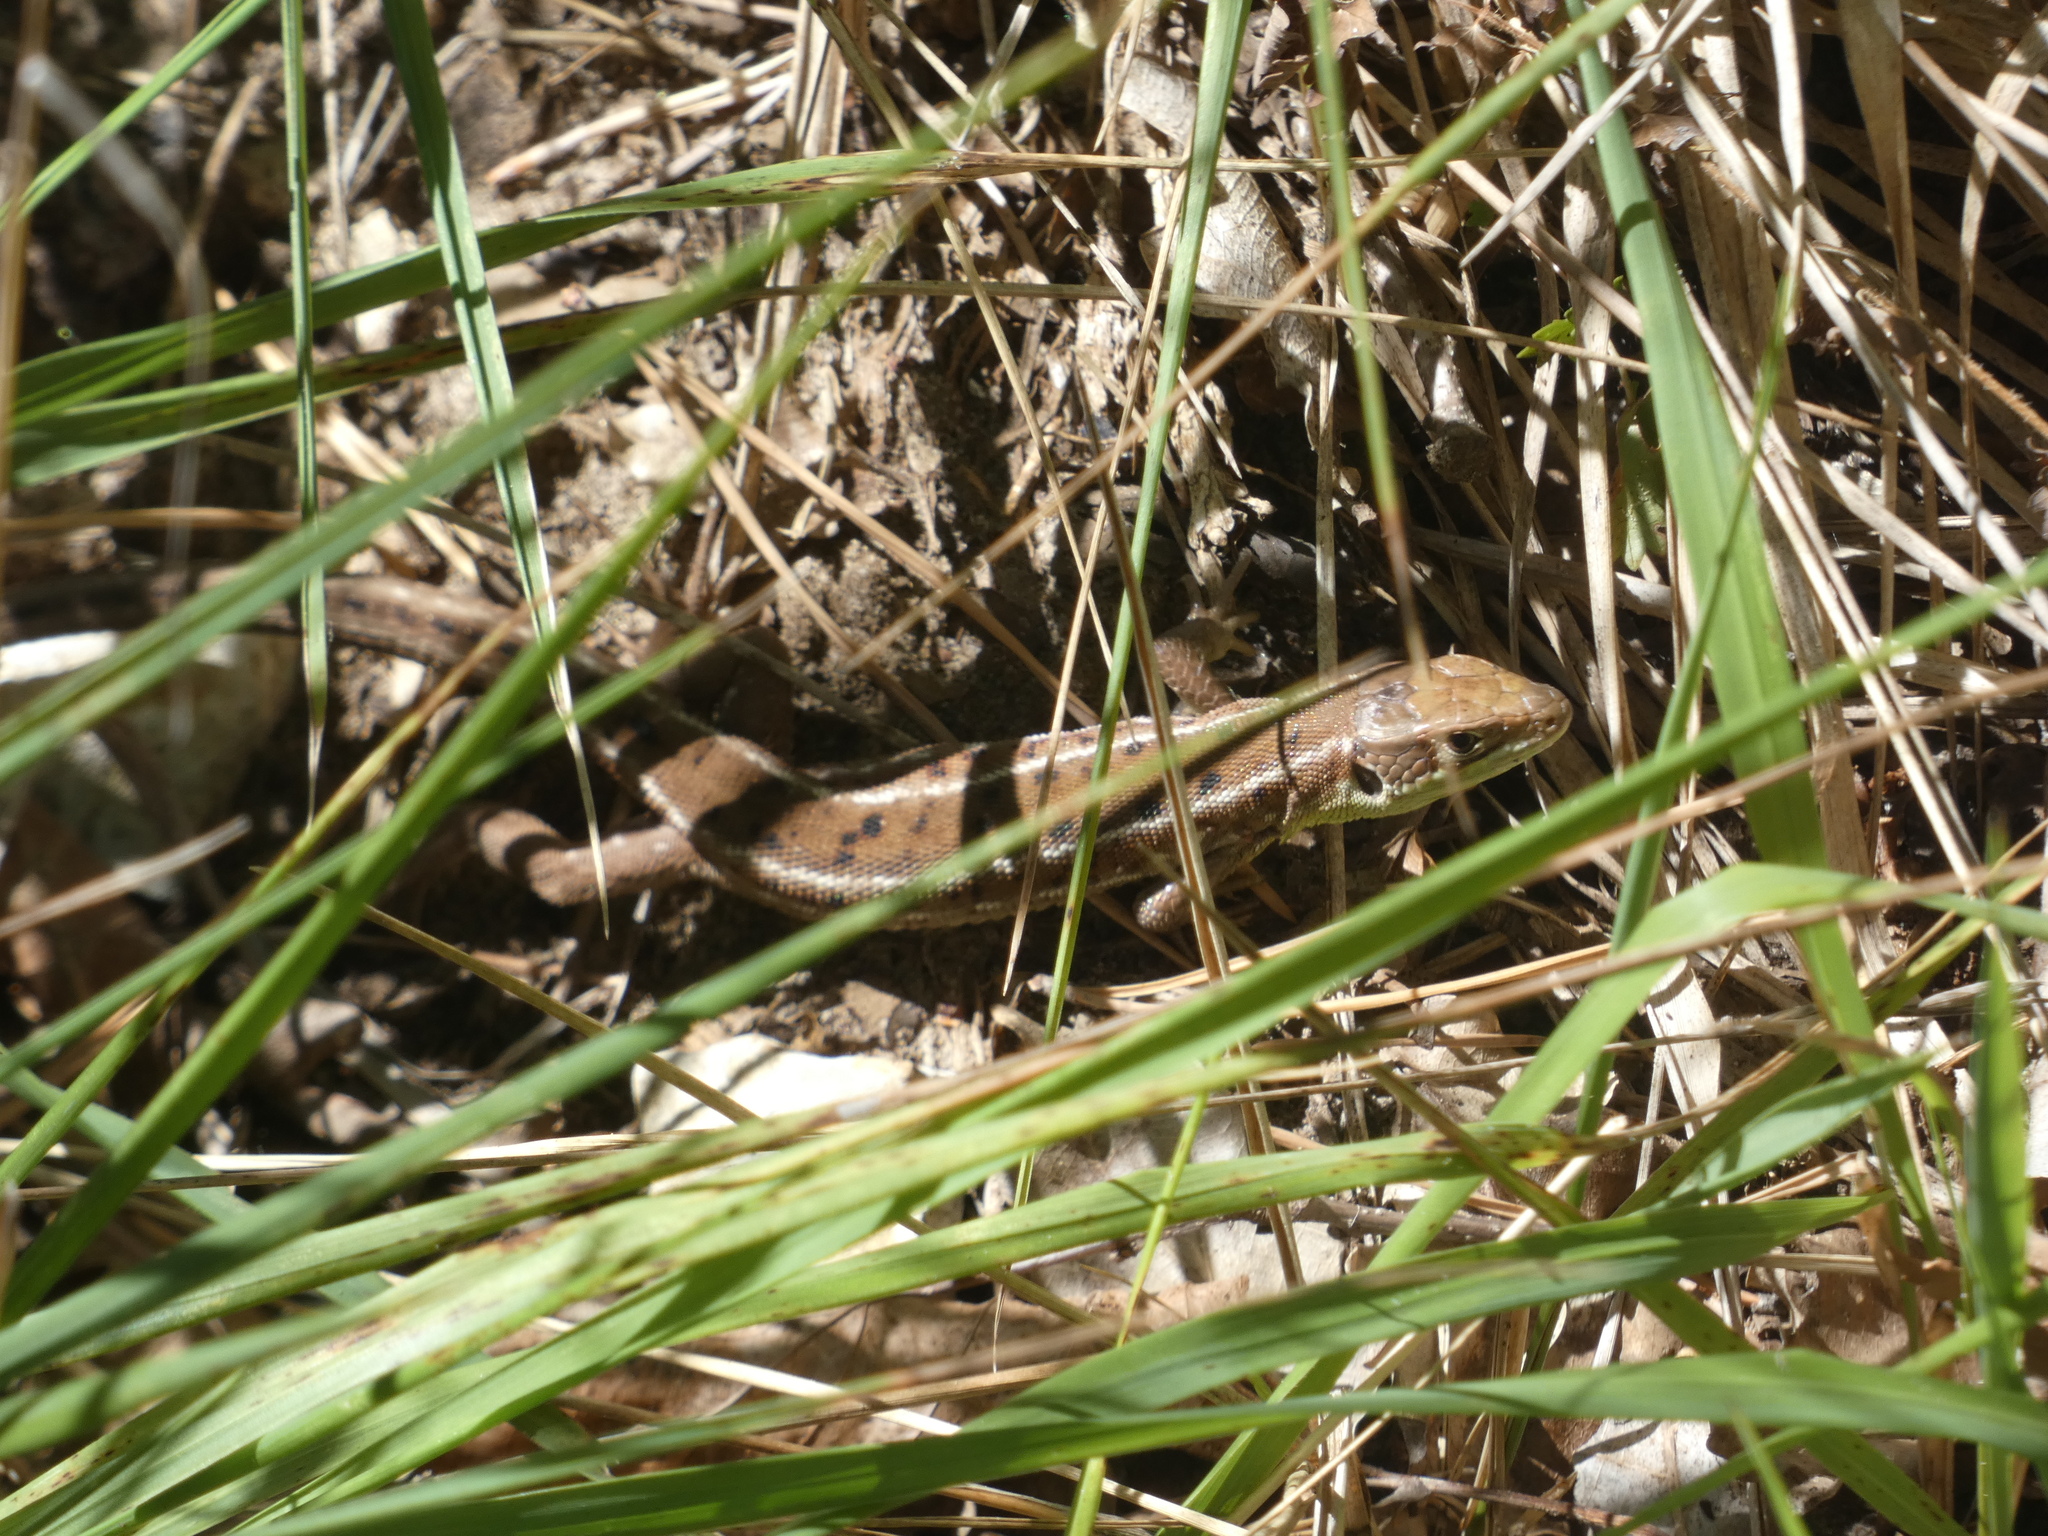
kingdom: Animalia
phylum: Chordata
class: Squamata
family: Lacertidae
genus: Lacerta
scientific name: Lacerta bilineata
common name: Western green lizard
